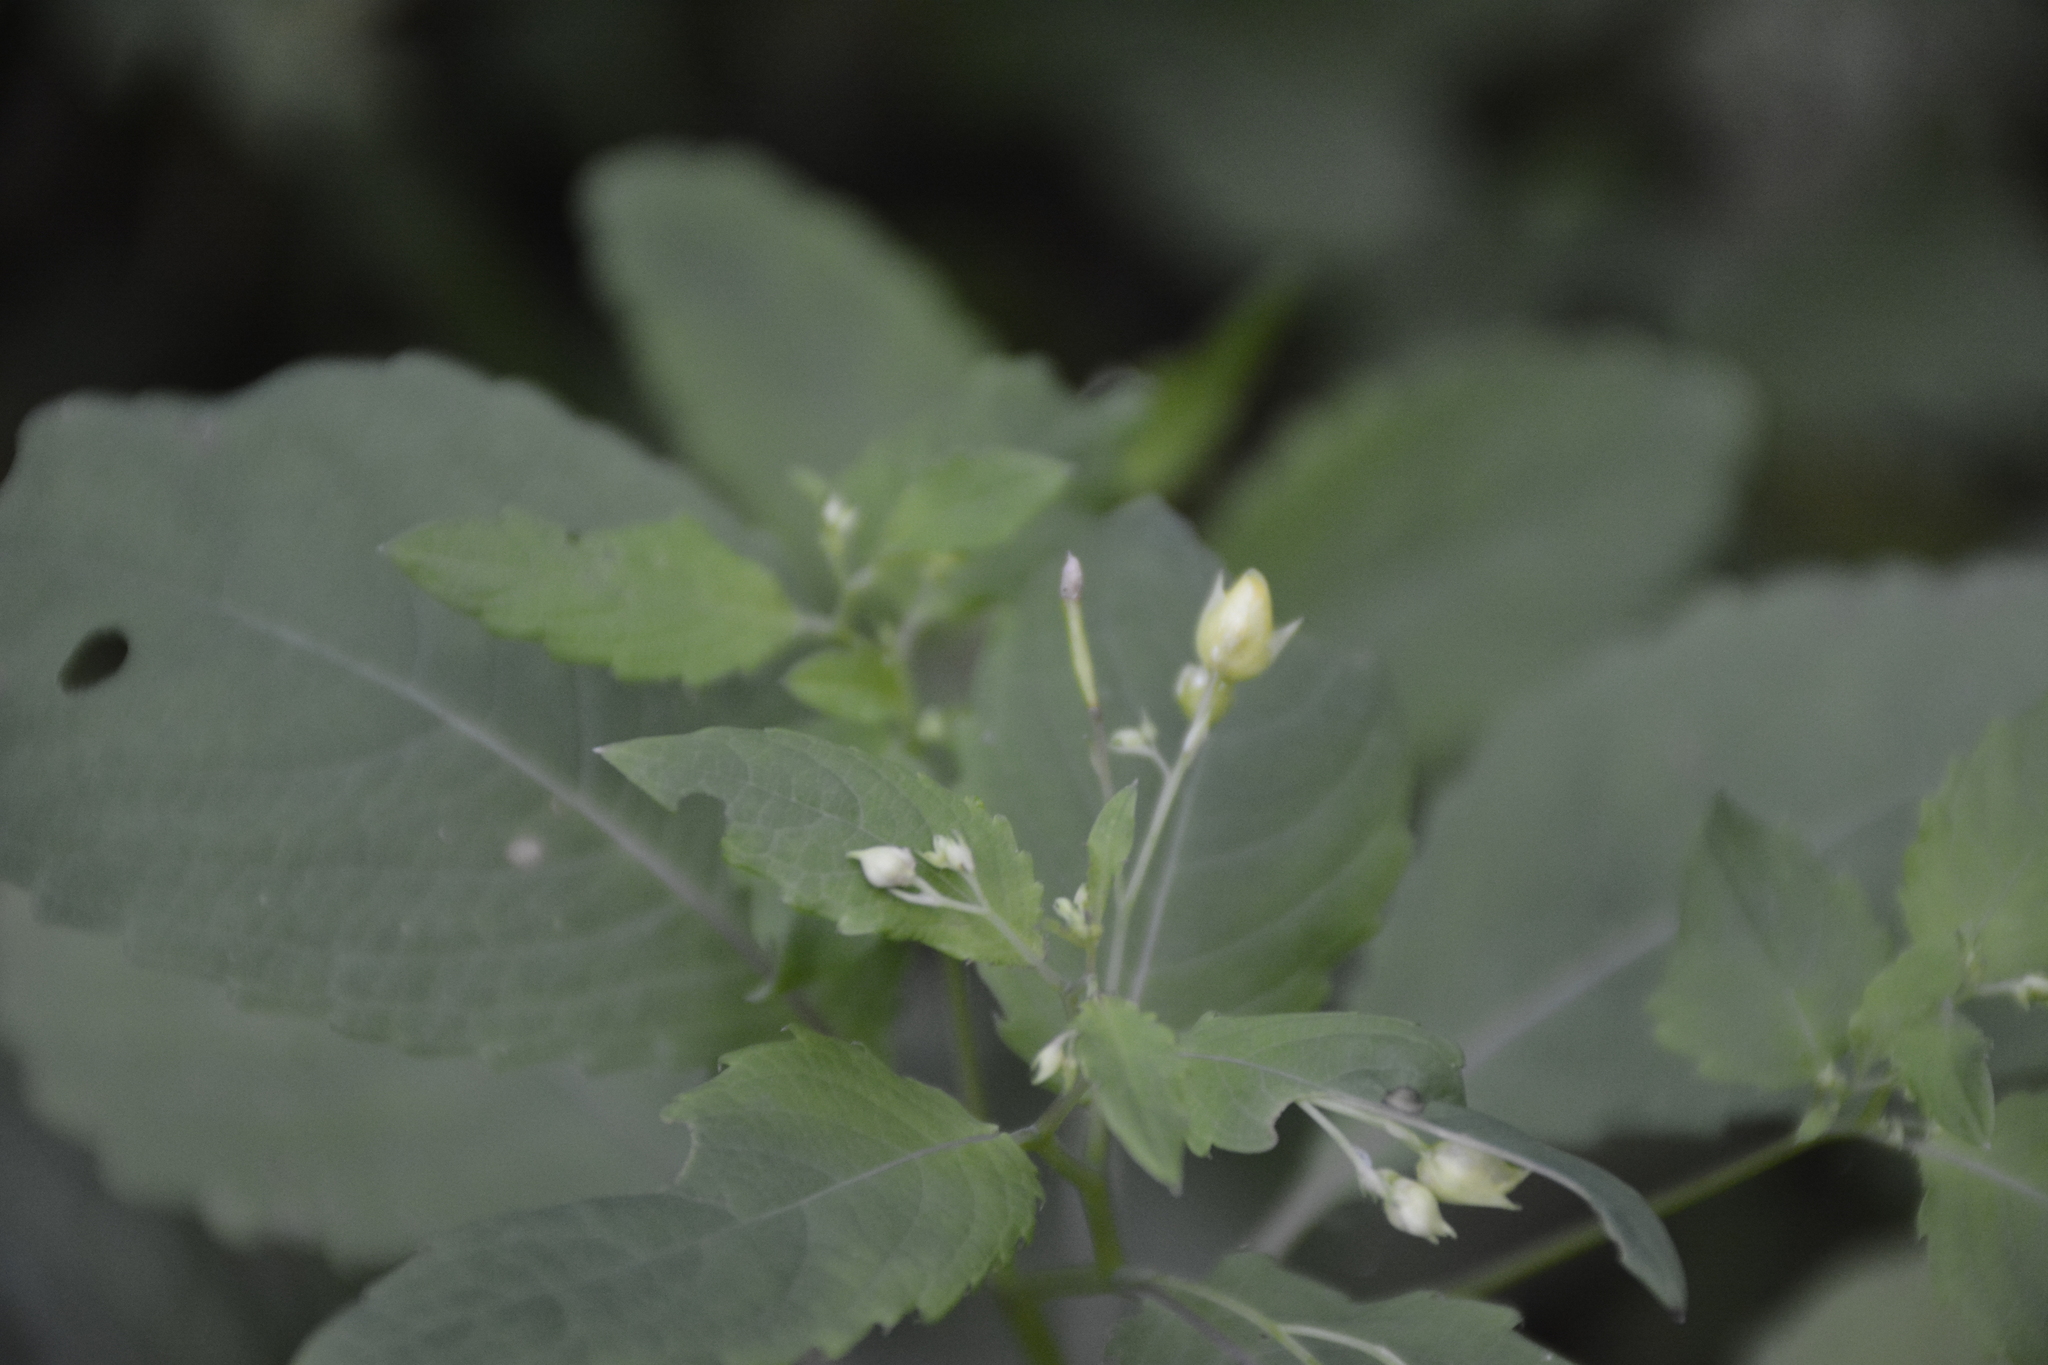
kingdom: Plantae
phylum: Tracheophyta
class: Magnoliopsida
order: Ericales
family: Balsaminaceae
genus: Impatiens
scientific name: Impatiens noli-tangere
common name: Touch-me-not balsam
